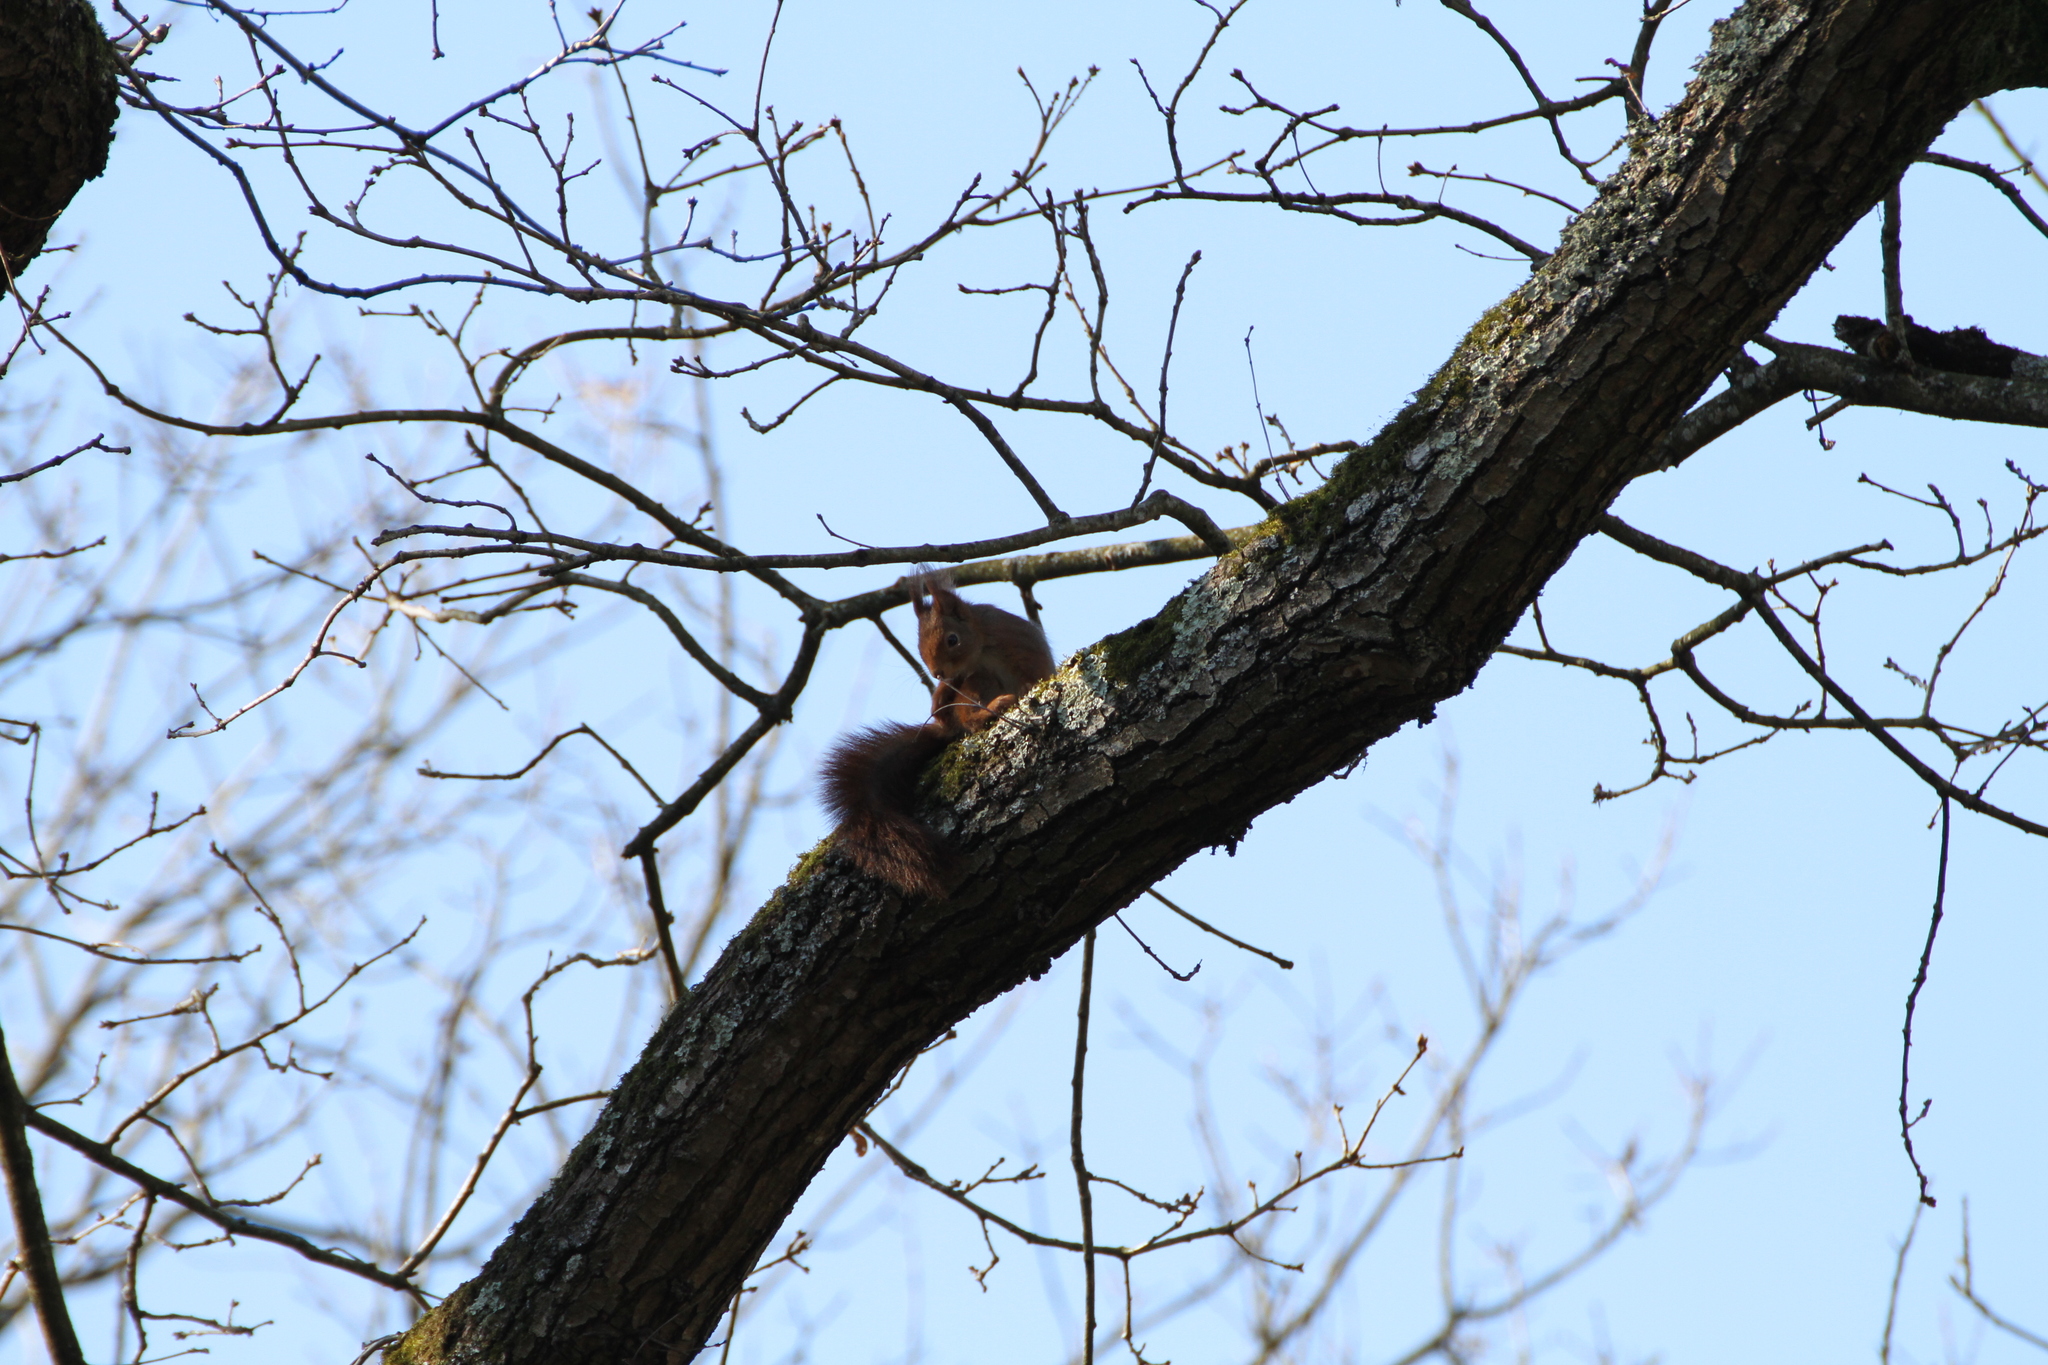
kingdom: Animalia
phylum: Chordata
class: Mammalia
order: Rodentia
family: Sciuridae
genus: Sciurus
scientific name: Sciurus vulgaris
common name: Eurasian red squirrel
